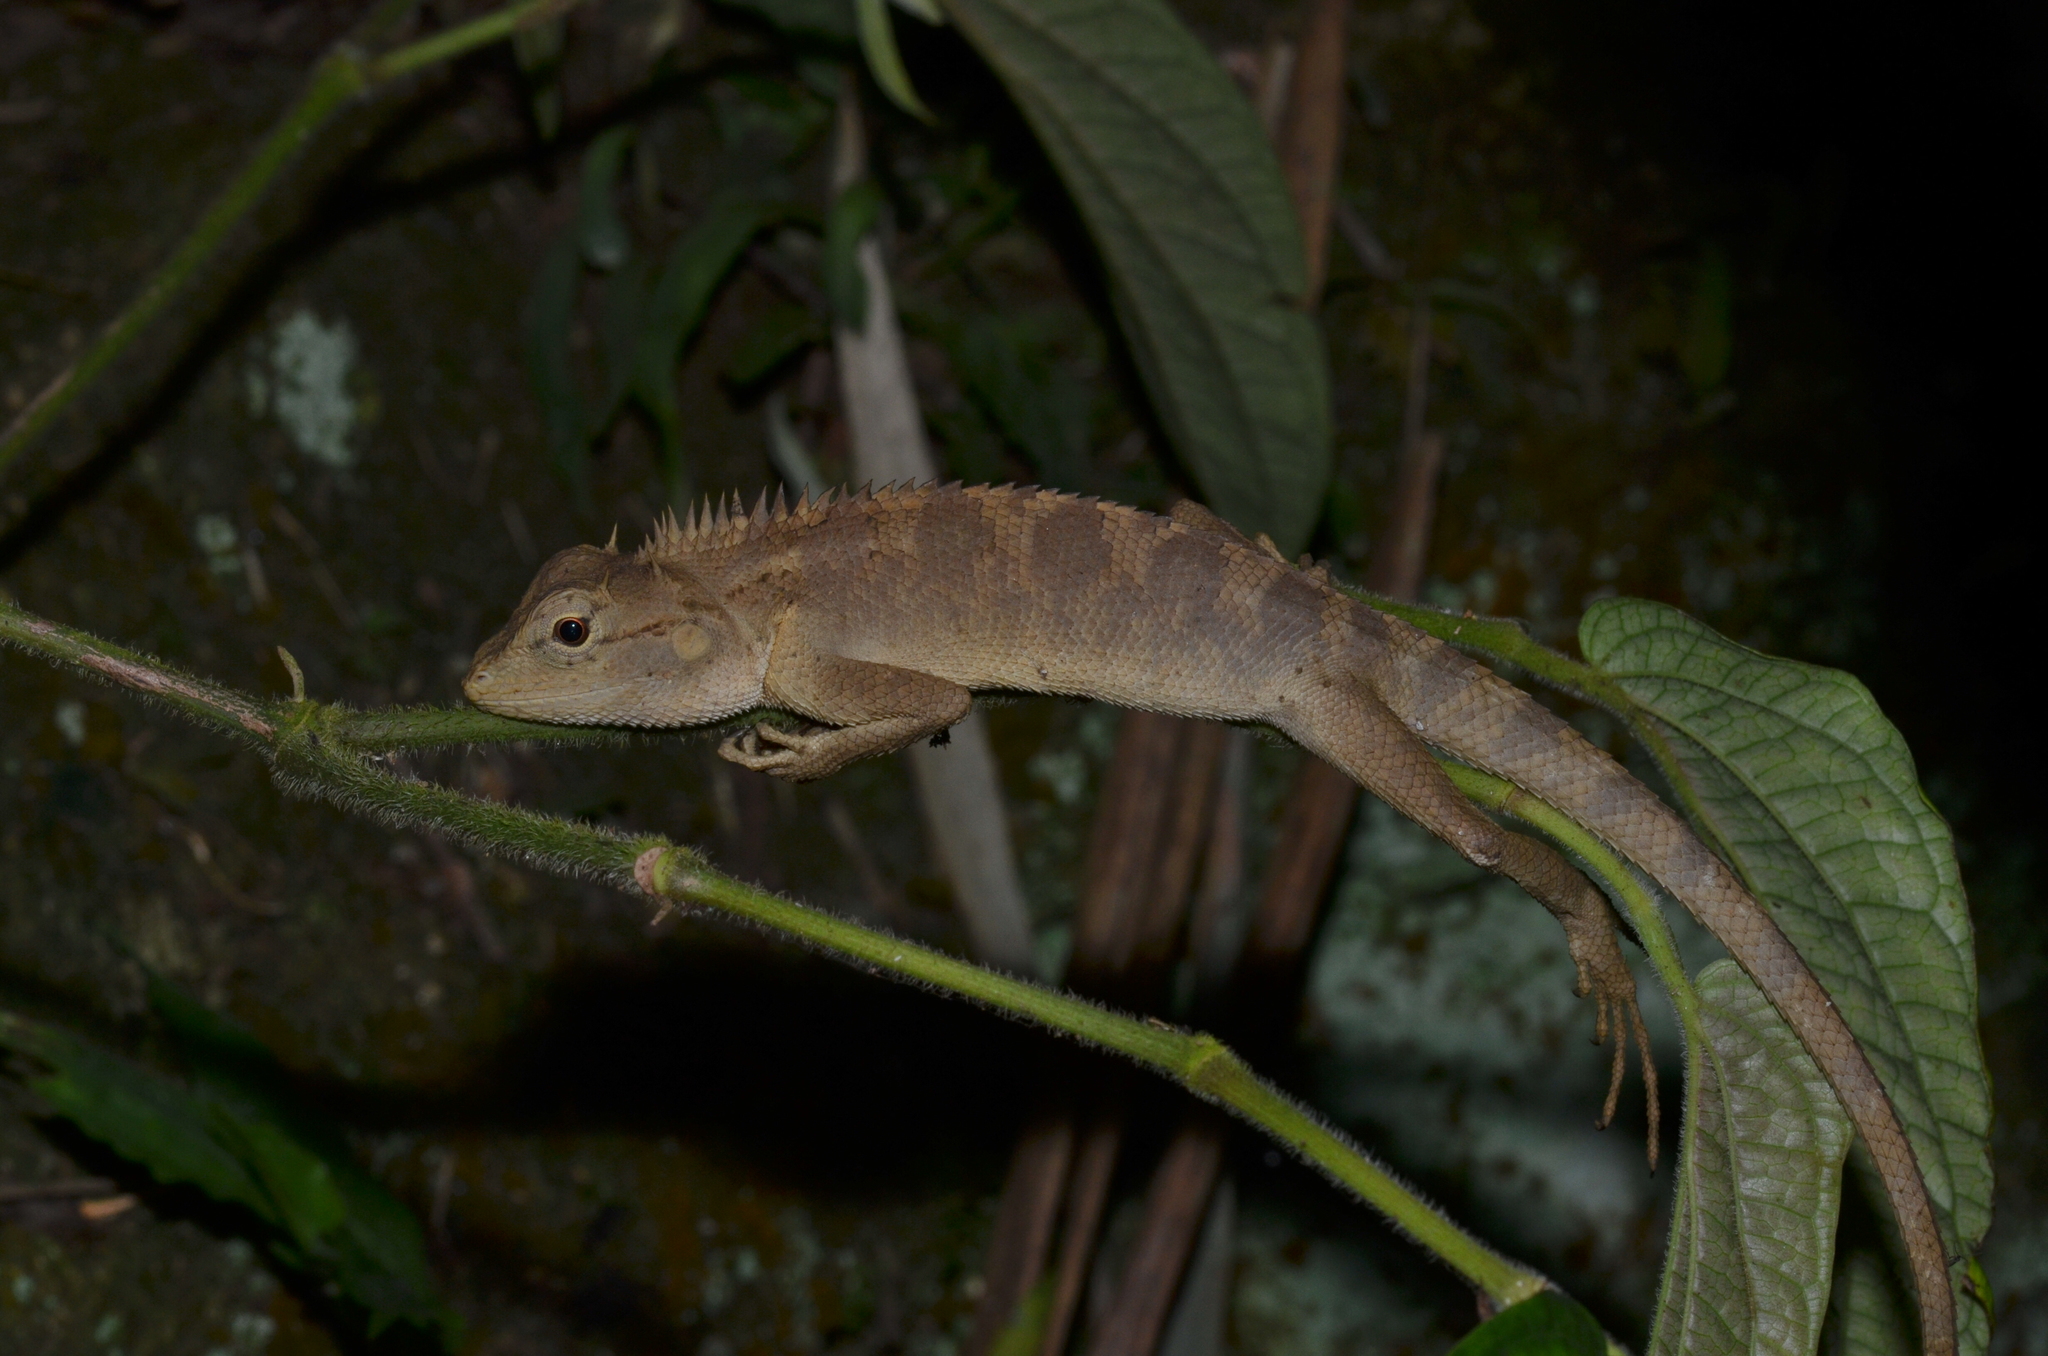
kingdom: Animalia
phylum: Chordata
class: Squamata
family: Agamidae
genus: Calotes
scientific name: Calotes emma
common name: Thailand bloodsucker
